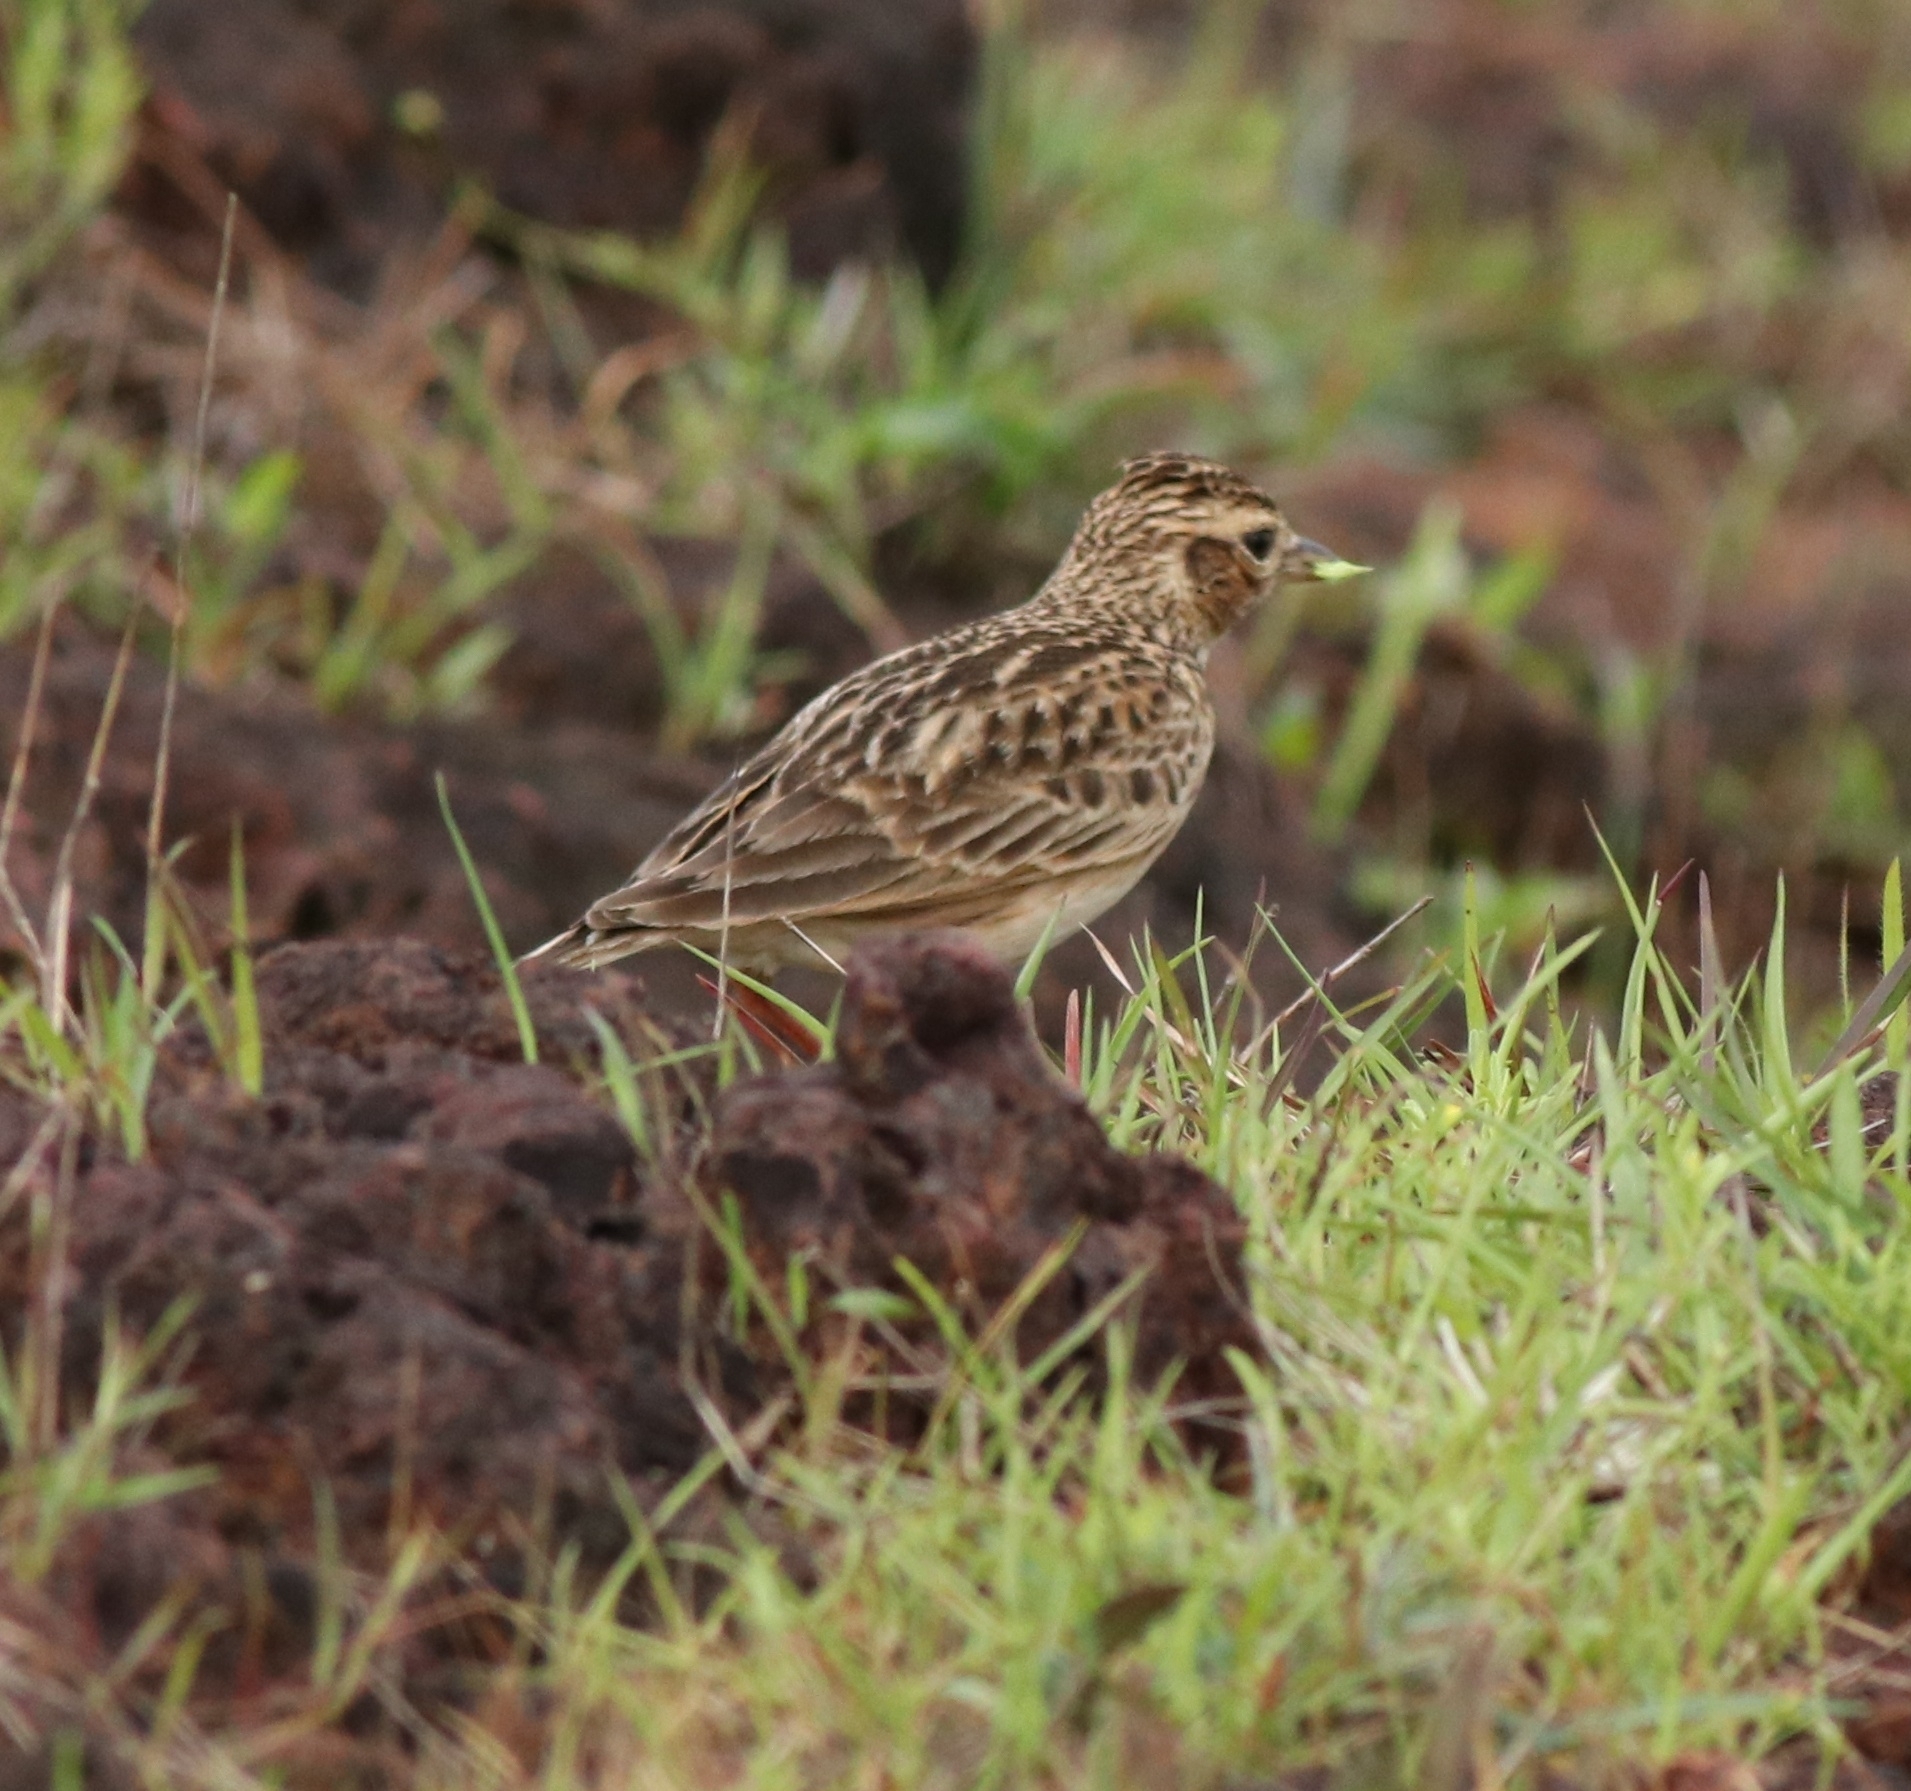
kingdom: Animalia
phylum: Chordata
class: Aves
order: Passeriformes
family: Alaudidae
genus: Alauda
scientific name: Alauda gulgula
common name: Oriental skylark
